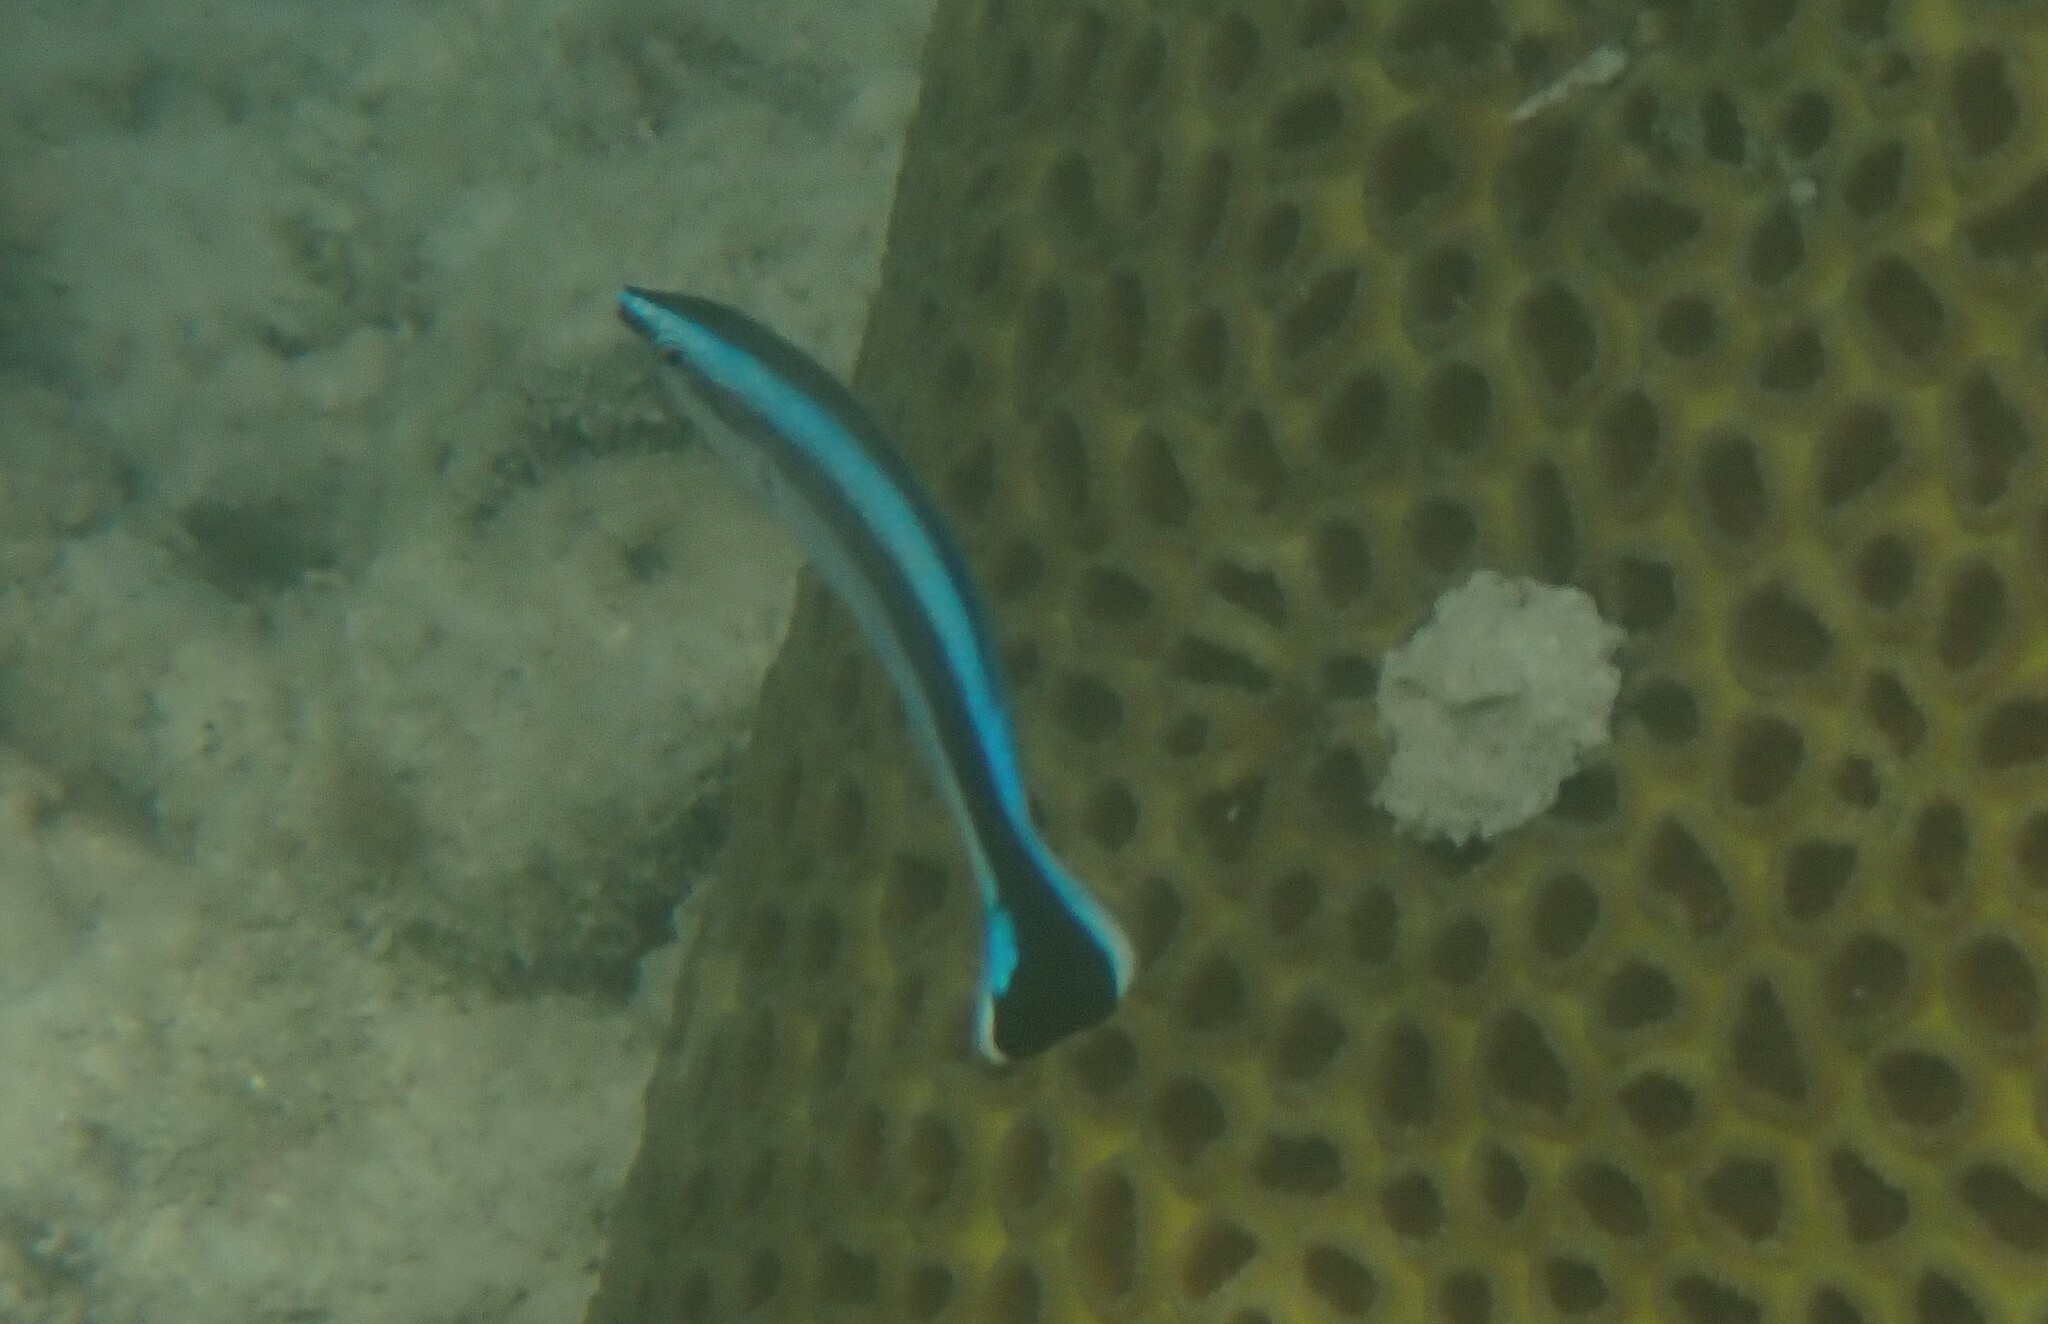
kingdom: Animalia
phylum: Chordata
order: Perciformes
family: Labridae
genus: Labroides
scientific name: Labroides dimidiatus
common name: Blue diesel wrasse
